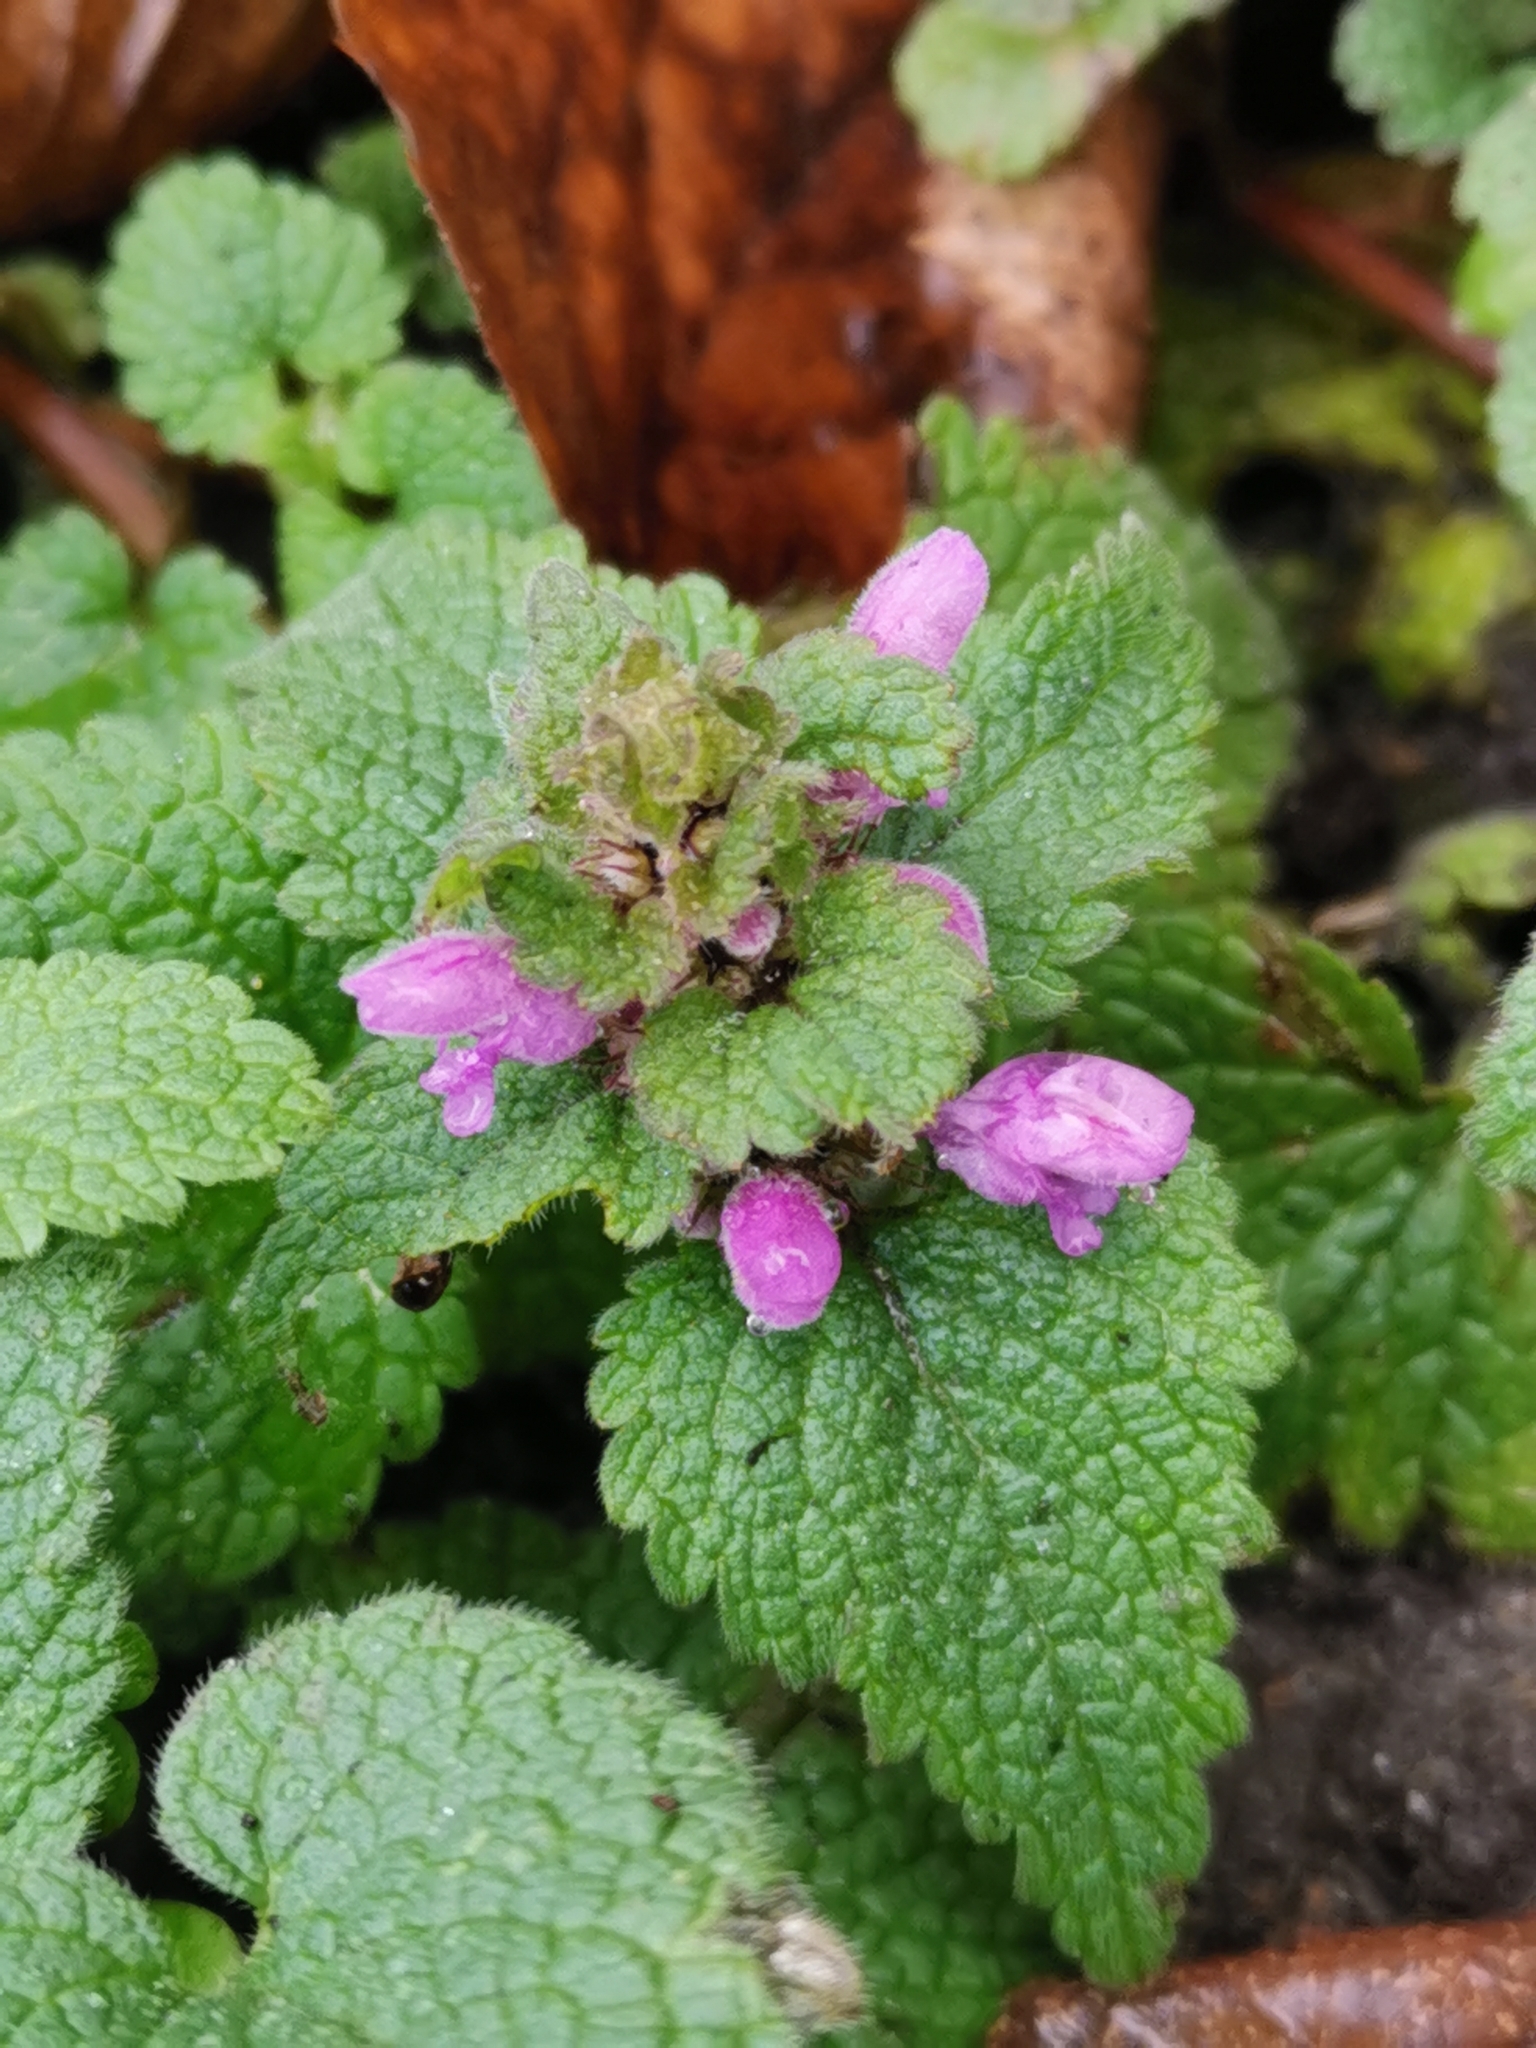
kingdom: Plantae
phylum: Tracheophyta
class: Magnoliopsida
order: Lamiales
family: Lamiaceae
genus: Lamium
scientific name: Lamium purpureum
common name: Red dead-nettle
